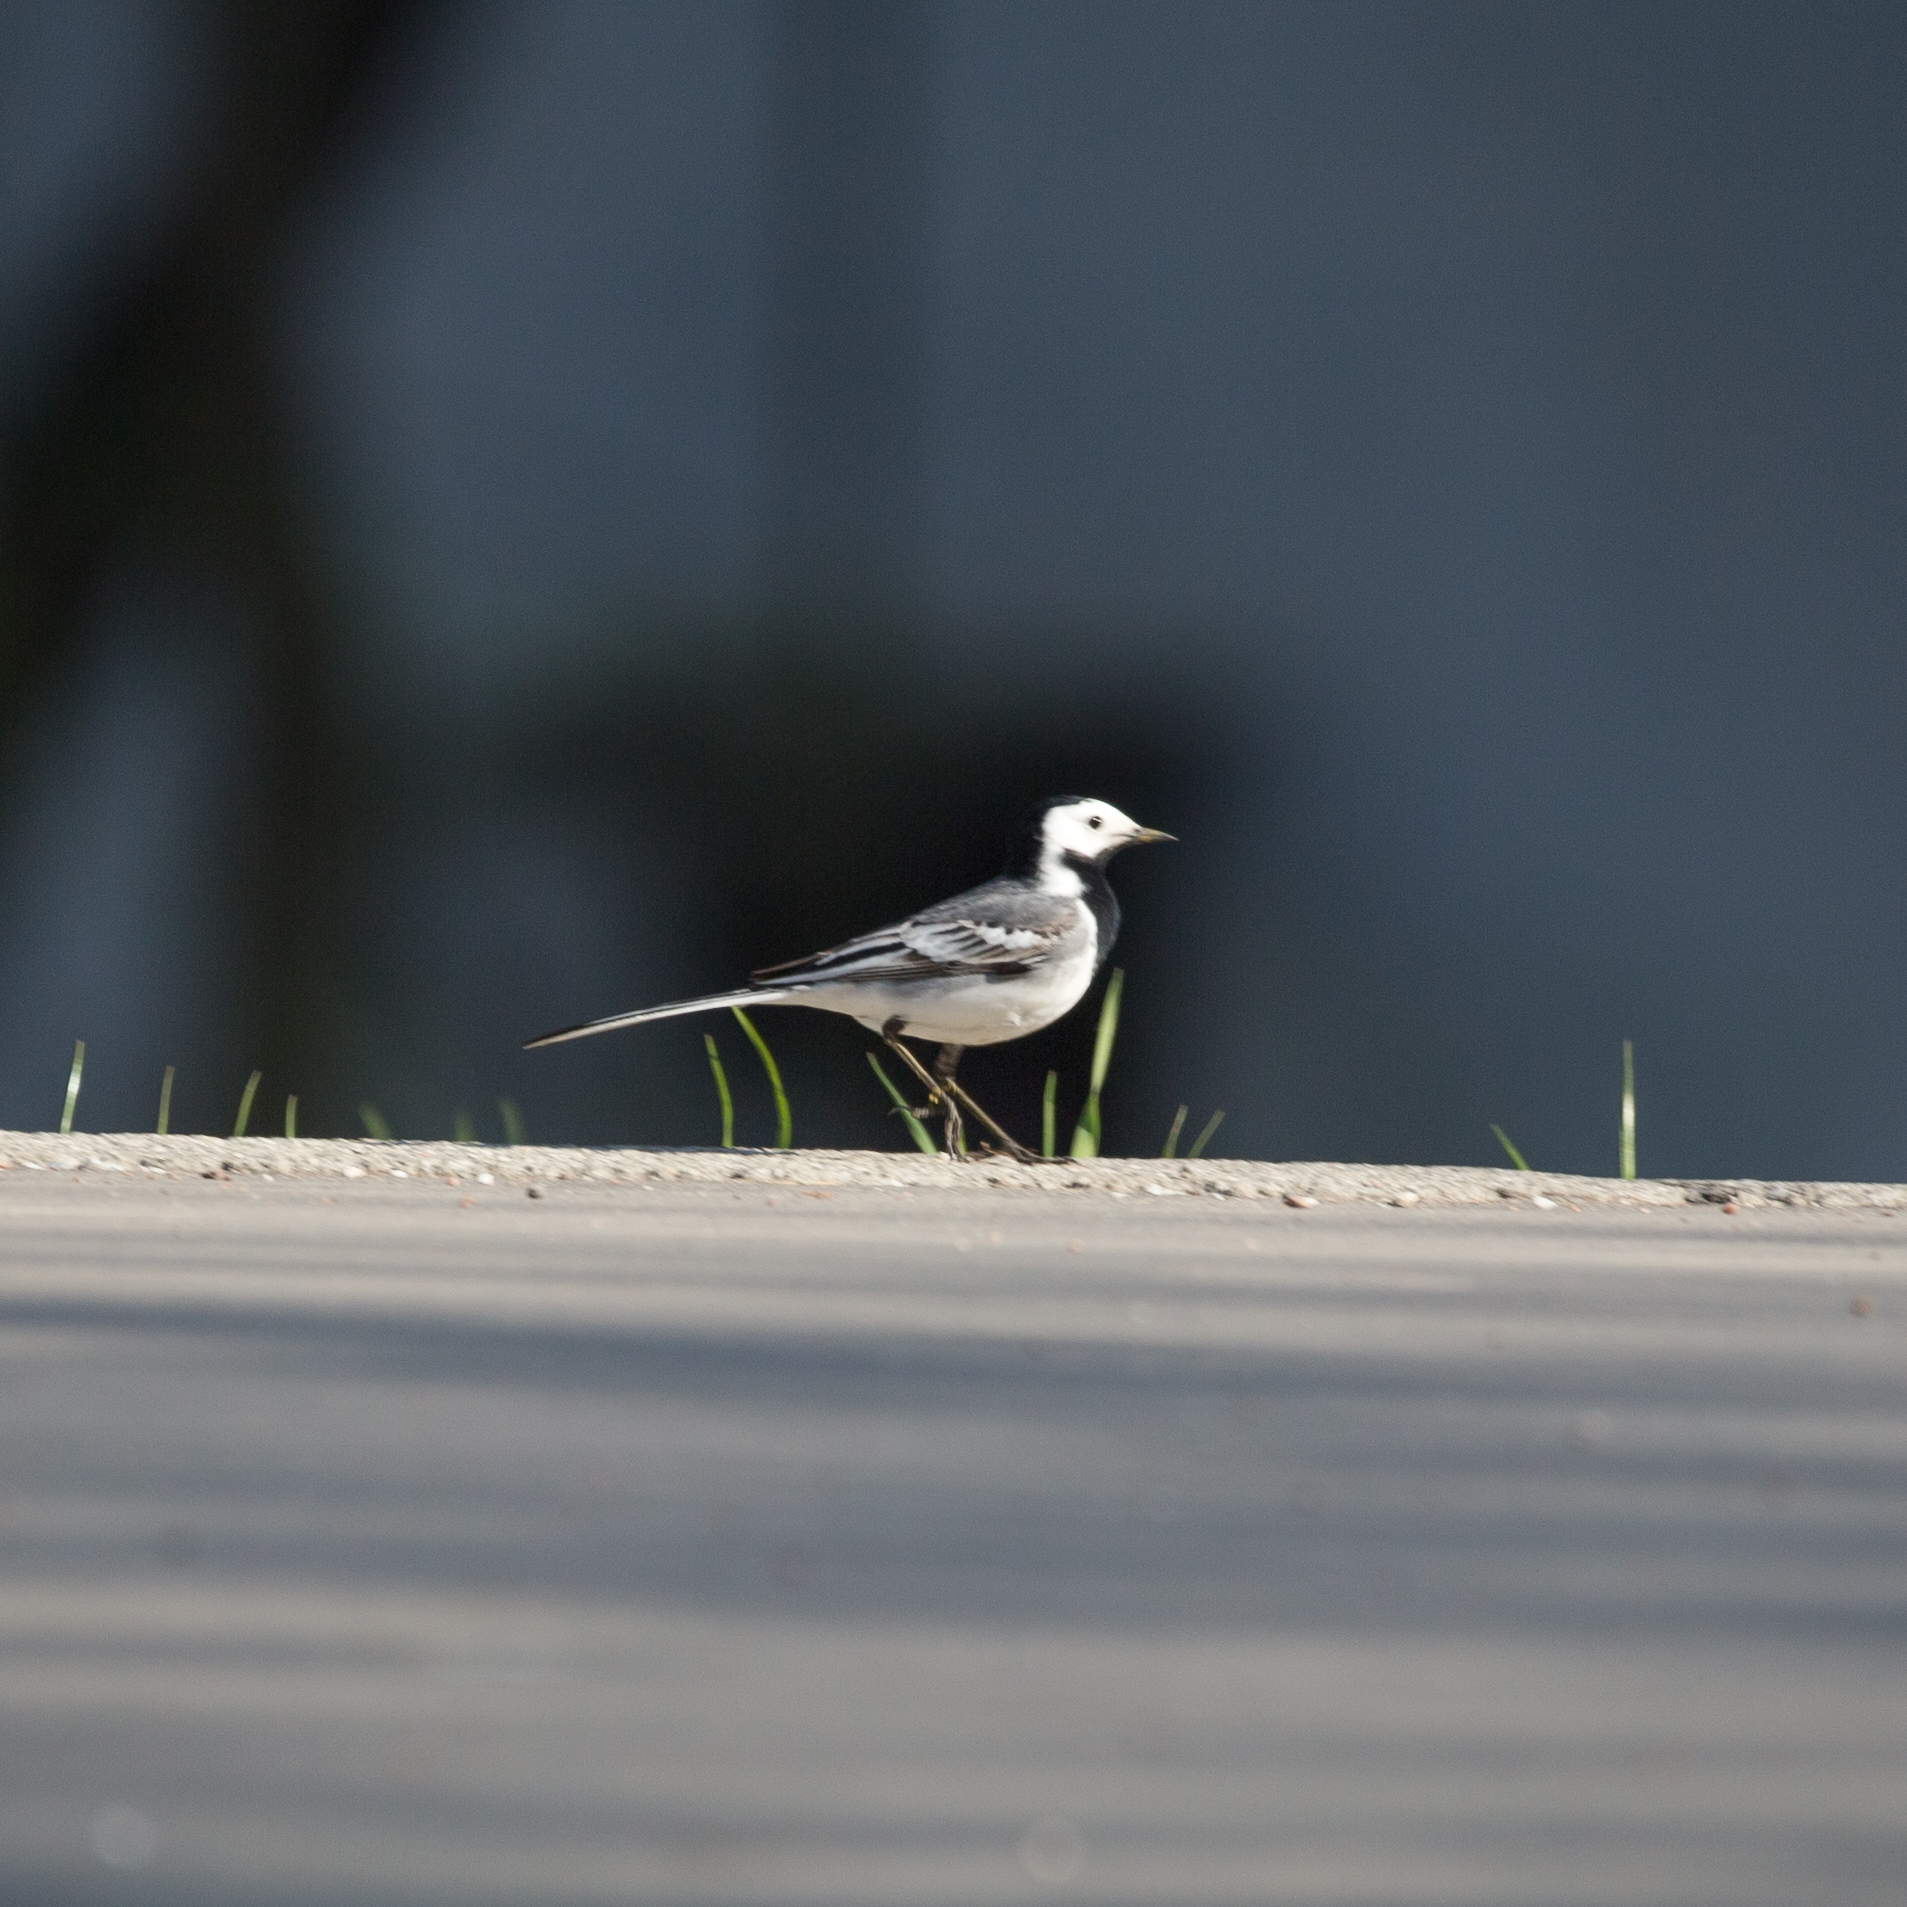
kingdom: Animalia
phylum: Chordata
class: Aves
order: Passeriformes
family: Motacillidae
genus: Motacilla
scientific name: Motacilla alba
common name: White wagtail
